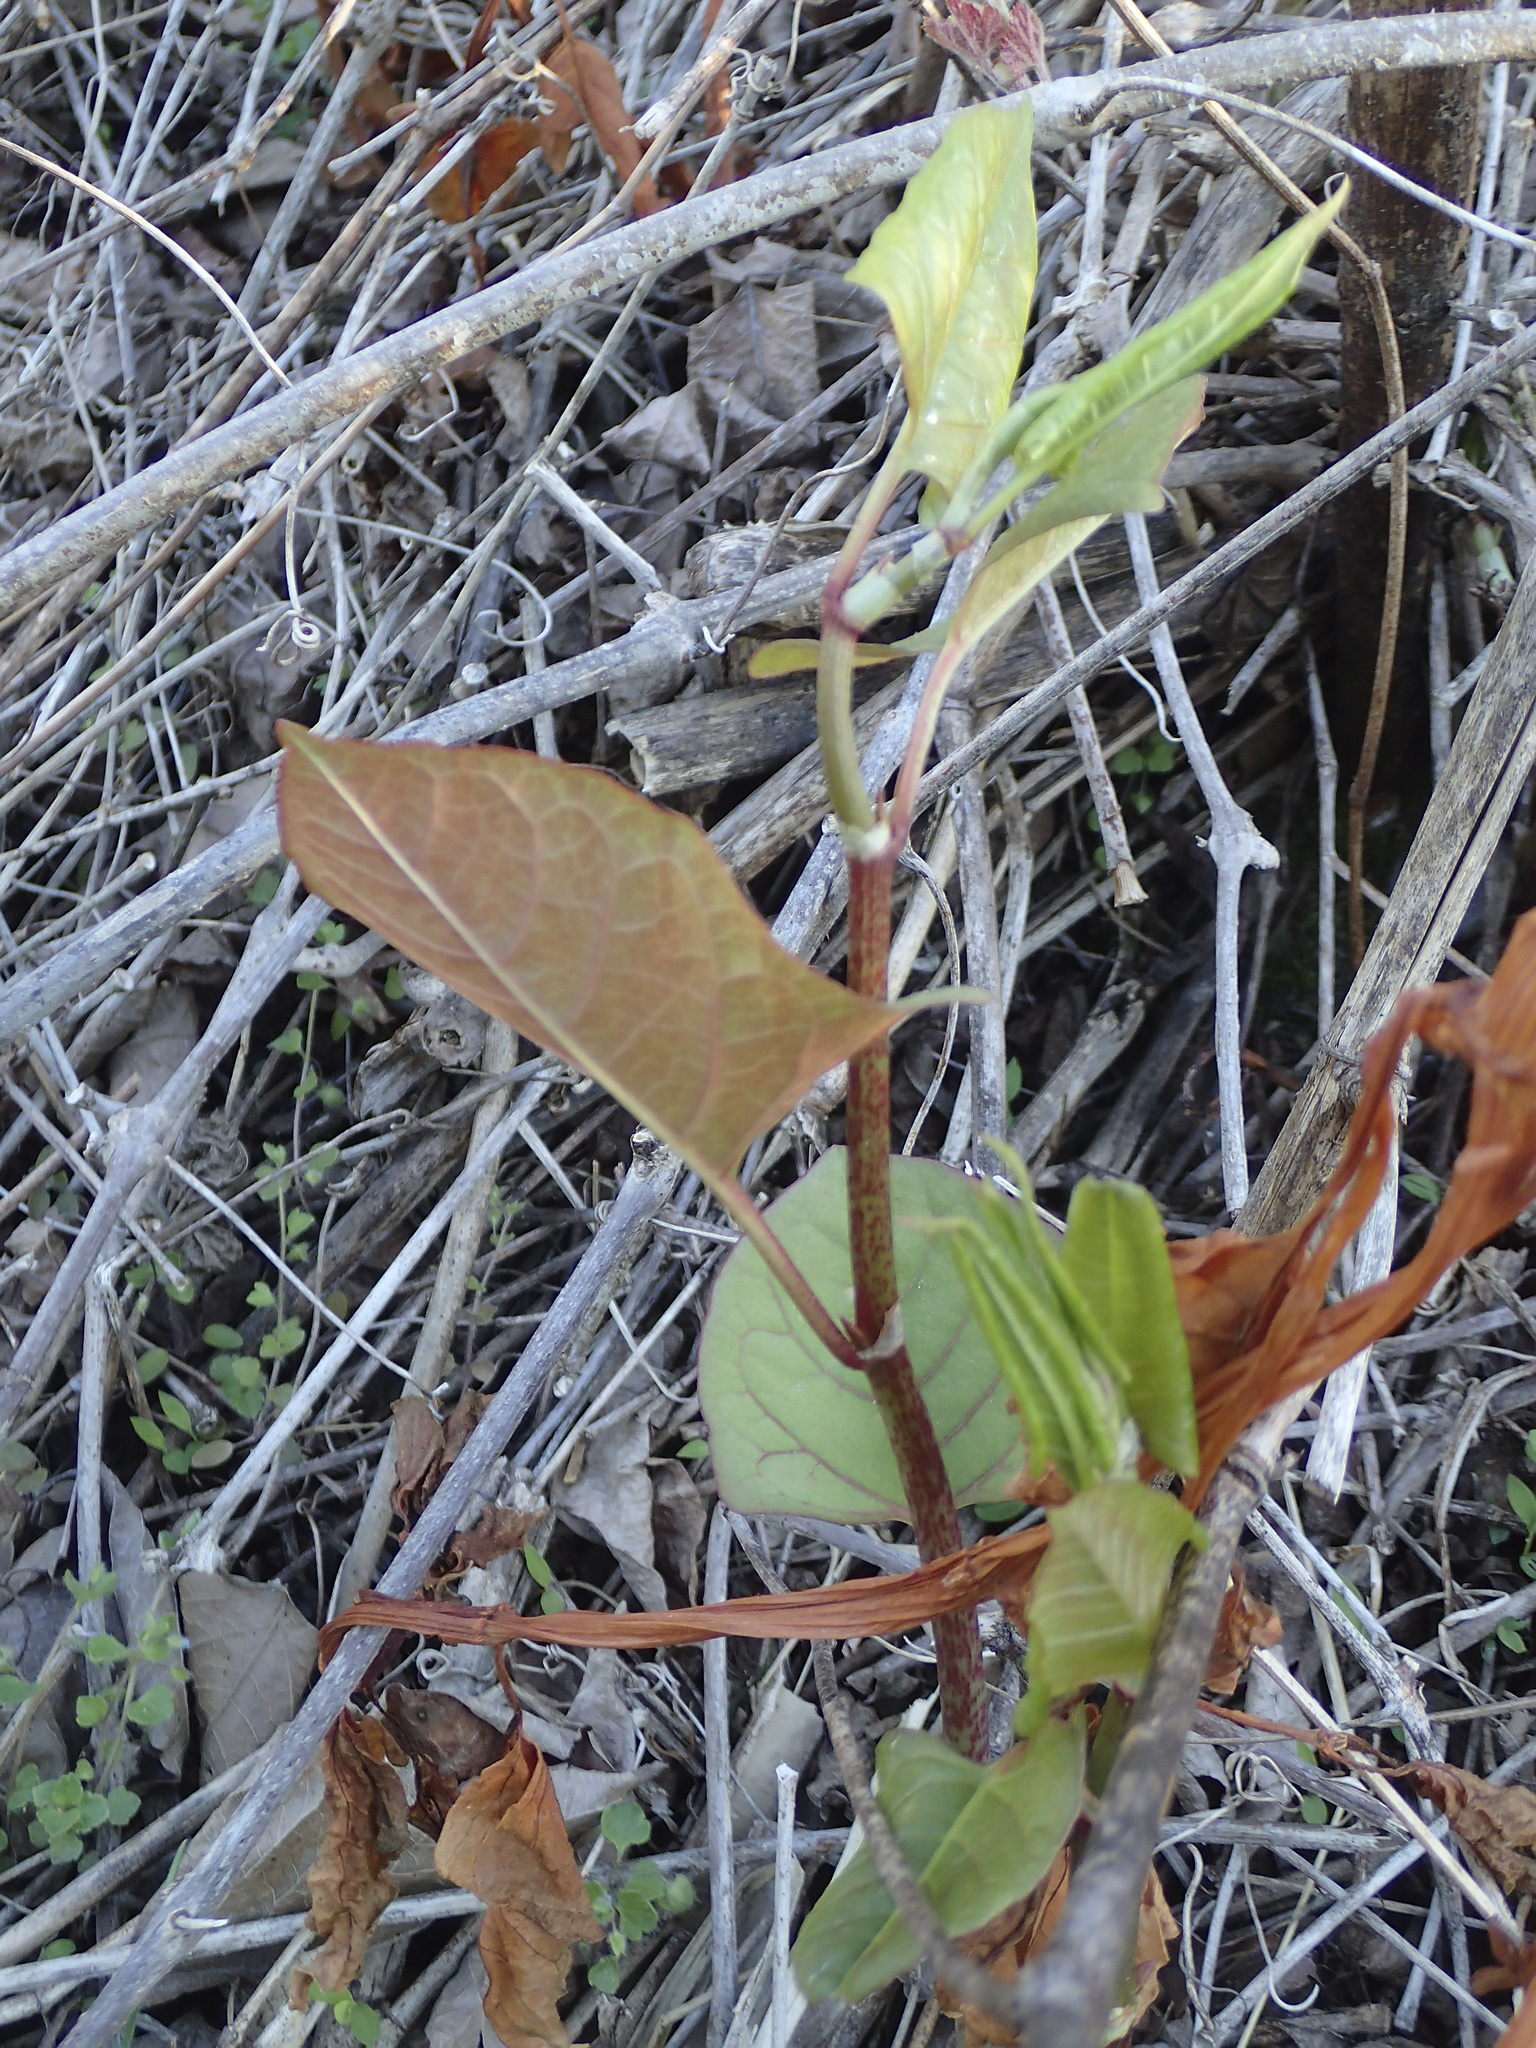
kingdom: Plantae
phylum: Tracheophyta
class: Magnoliopsida
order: Caryophyllales
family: Polygonaceae
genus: Reynoutria
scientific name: Reynoutria japonica
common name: Japanese knotweed
